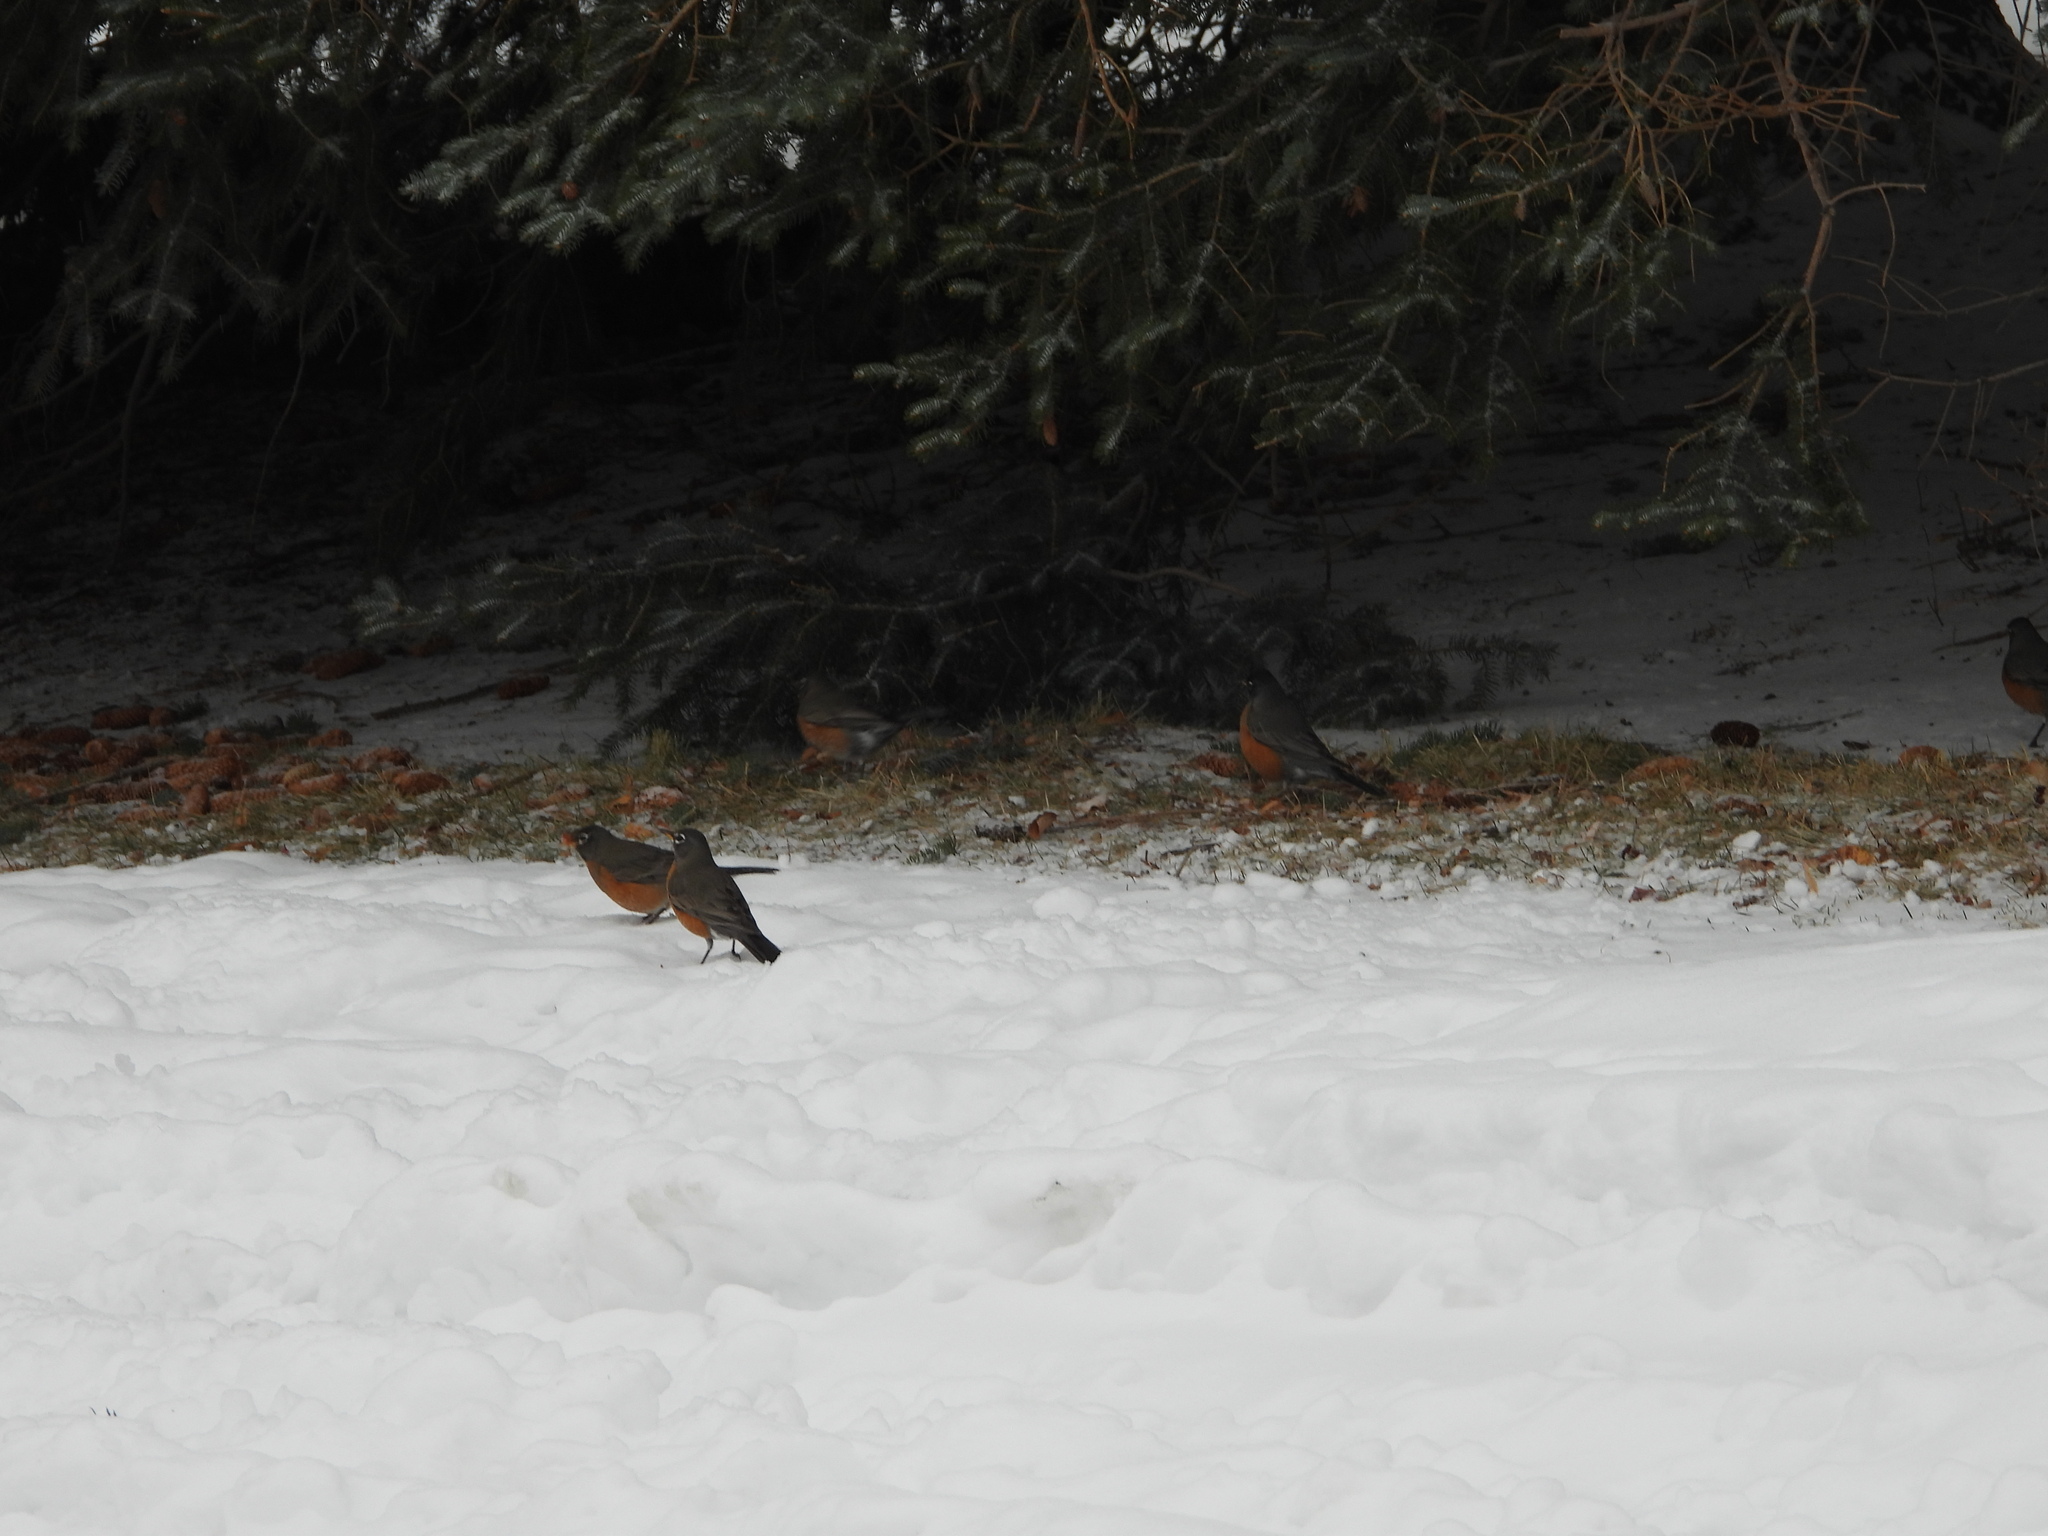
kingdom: Animalia
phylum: Chordata
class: Aves
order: Passeriformes
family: Turdidae
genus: Turdus
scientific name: Turdus migratorius
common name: American robin
